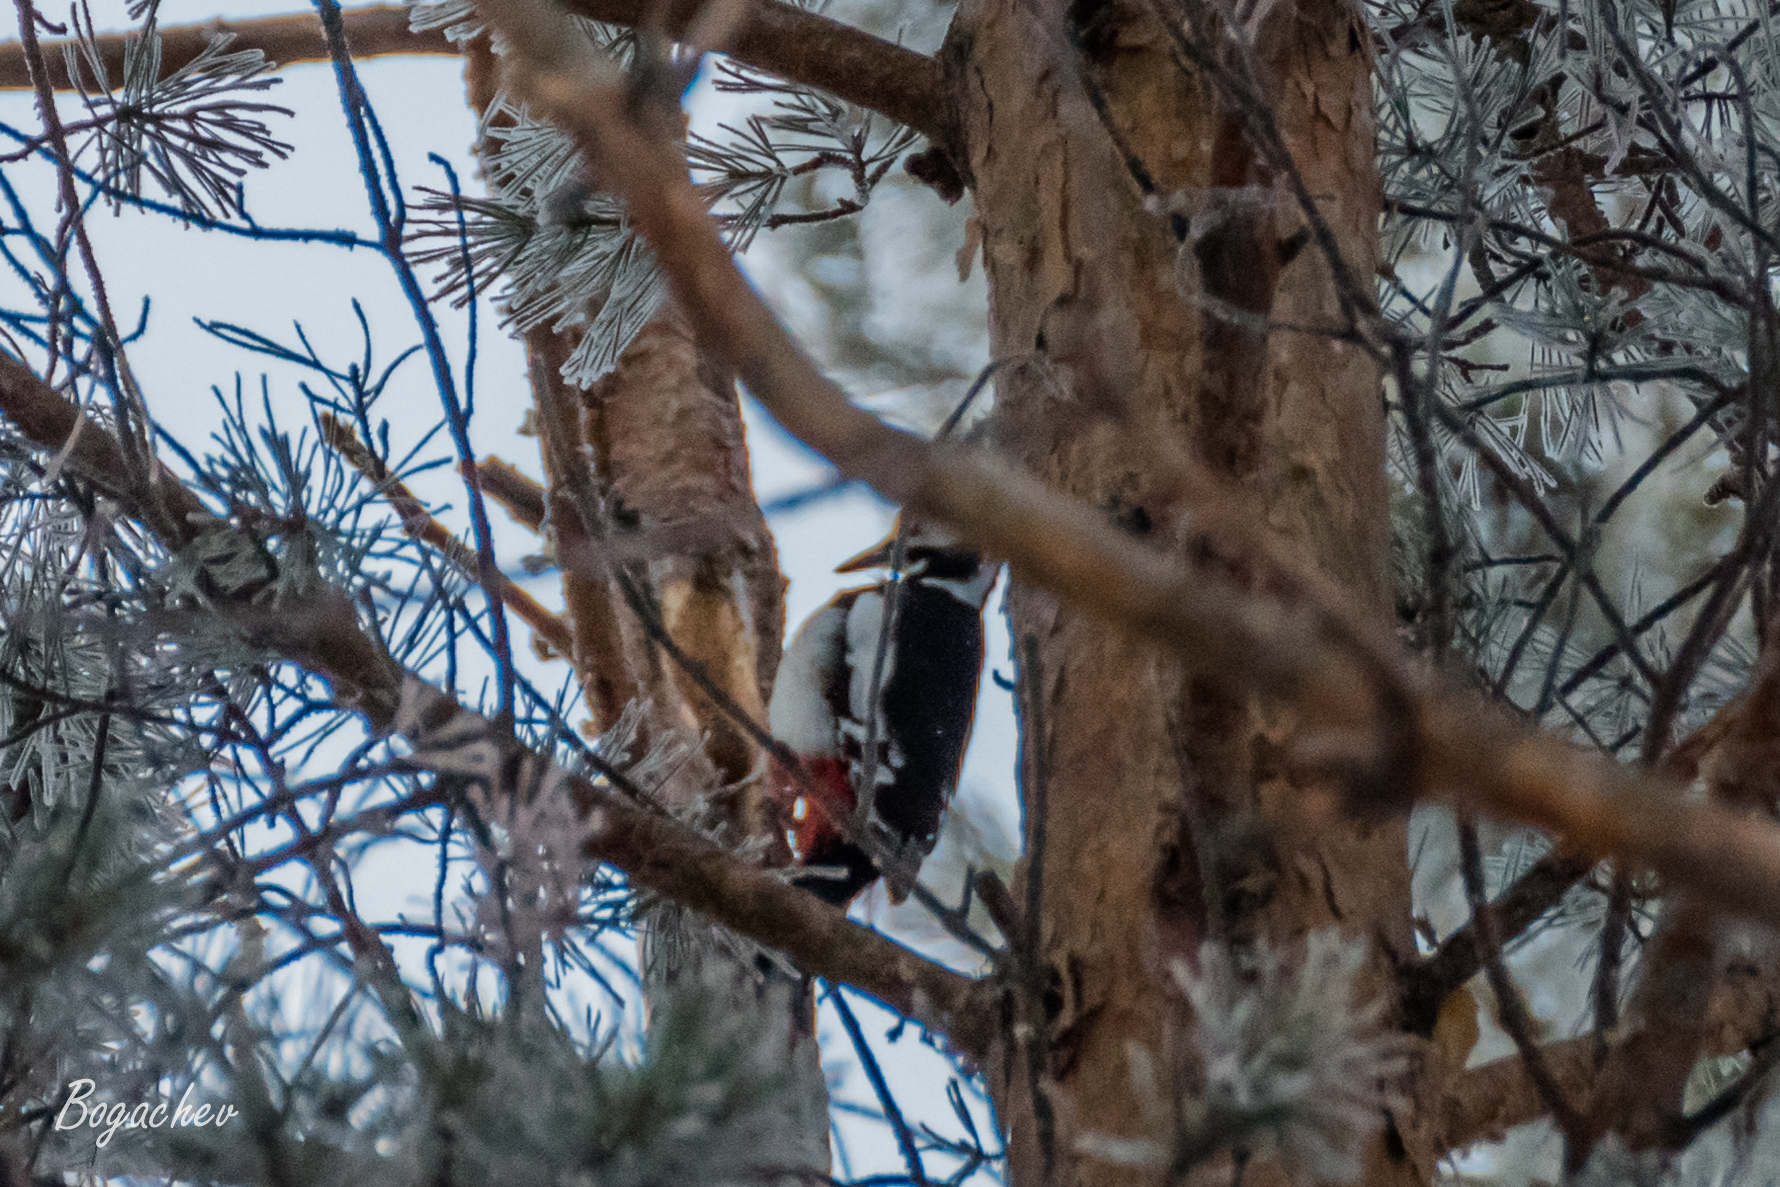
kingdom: Animalia
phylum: Chordata
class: Aves
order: Piciformes
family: Picidae
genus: Dendrocopos
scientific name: Dendrocopos major
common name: Great spotted woodpecker
